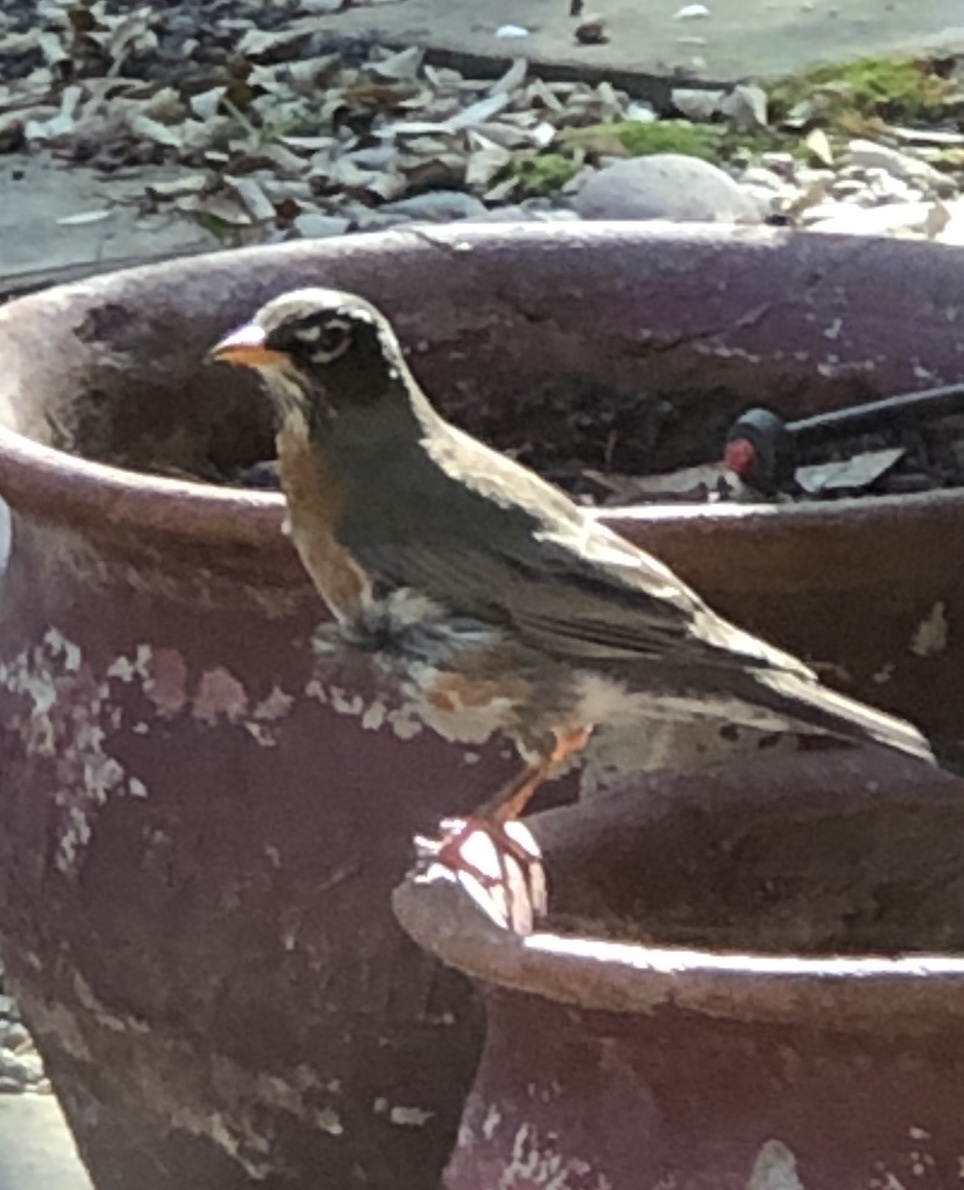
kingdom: Animalia
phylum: Chordata
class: Aves
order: Passeriformes
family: Turdidae
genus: Turdus
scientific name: Turdus migratorius
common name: American robin
